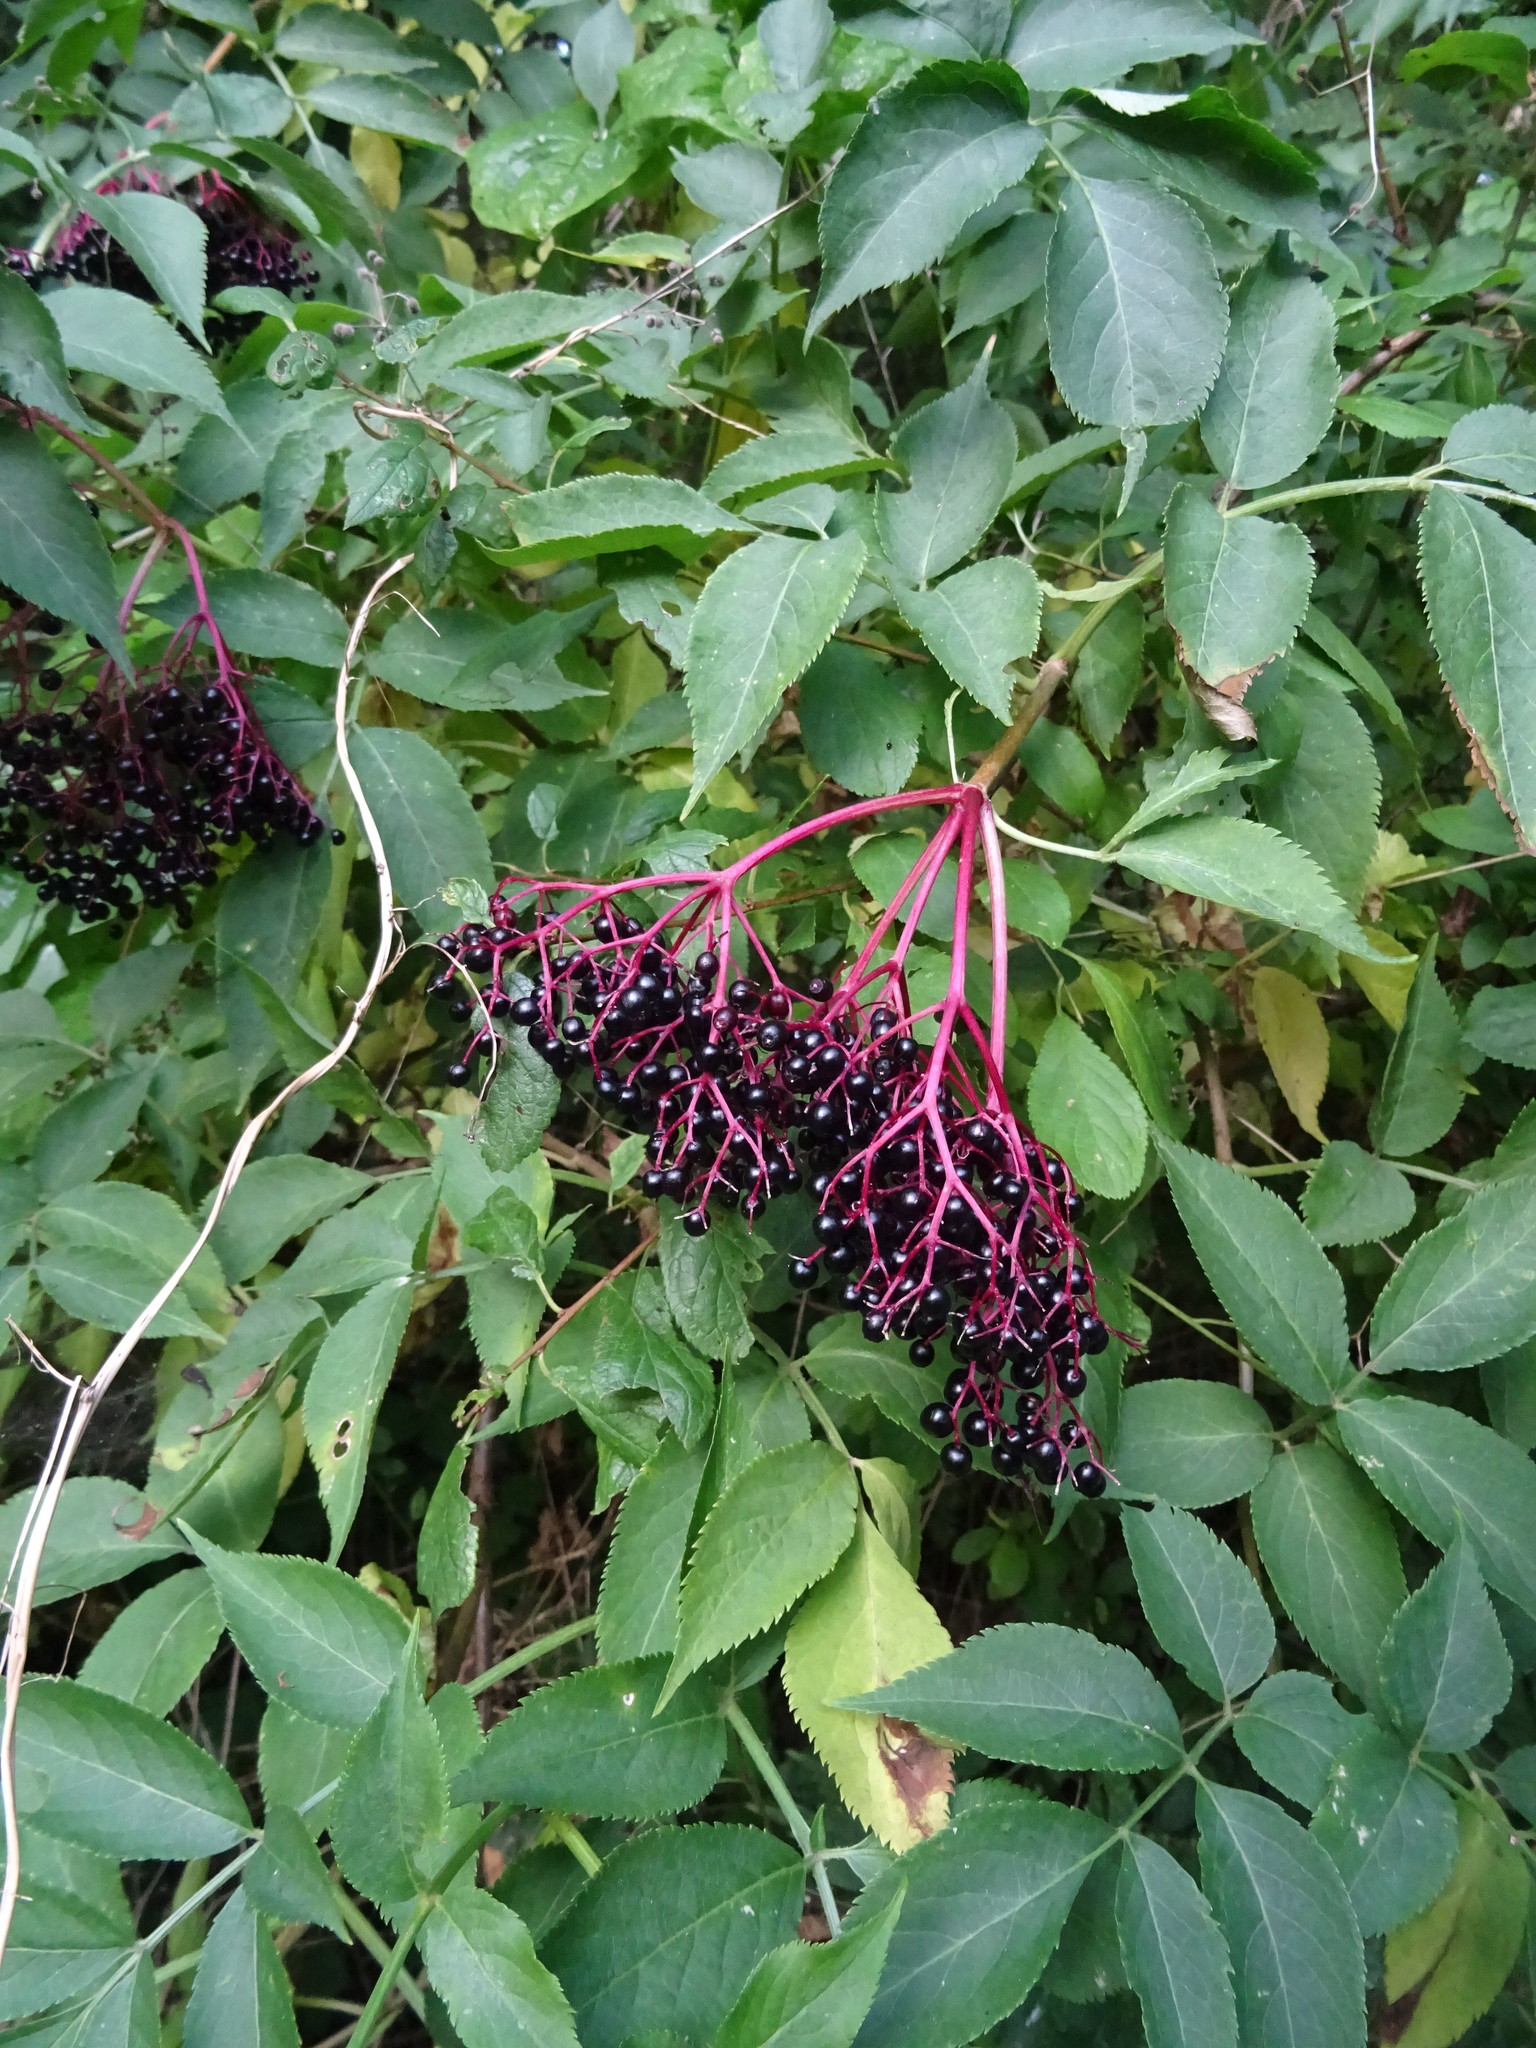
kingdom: Plantae
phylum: Tracheophyta
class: Magnoliopsida
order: Dipsacales
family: Viburnaceae
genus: Sambucus
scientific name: Sambucus nigra
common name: Elder
